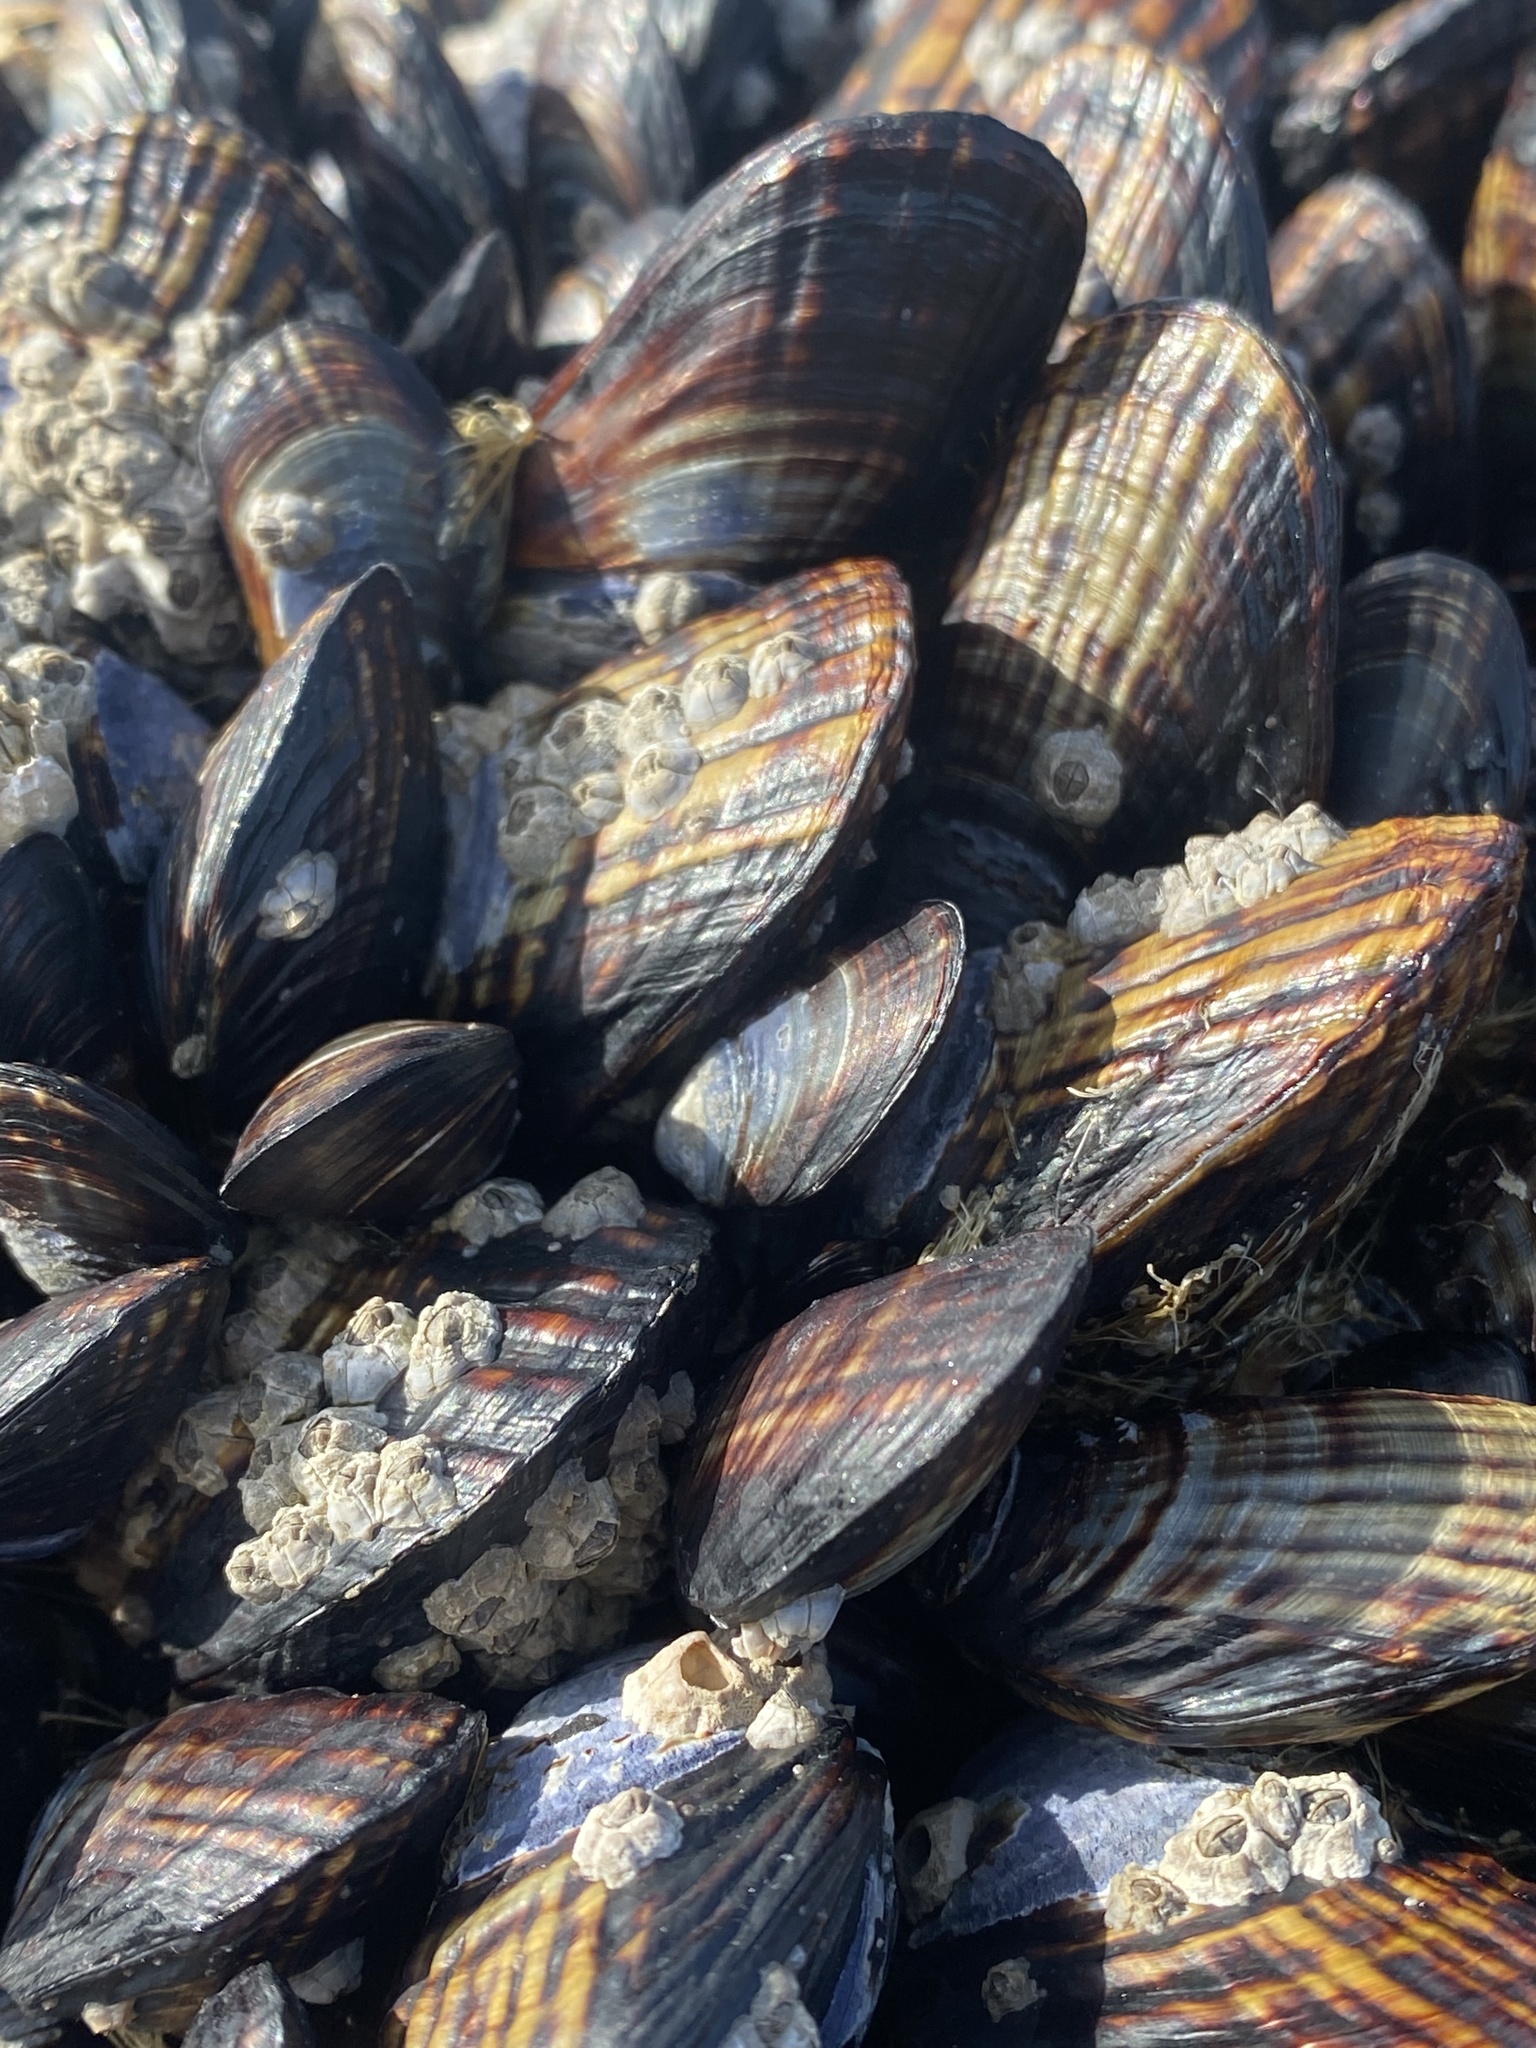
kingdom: Animalia
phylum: Mollusca
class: Bivalvia
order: Mytilida
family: Mytilidae
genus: Mytilus
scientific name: Mytilus californianus
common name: California mussel
